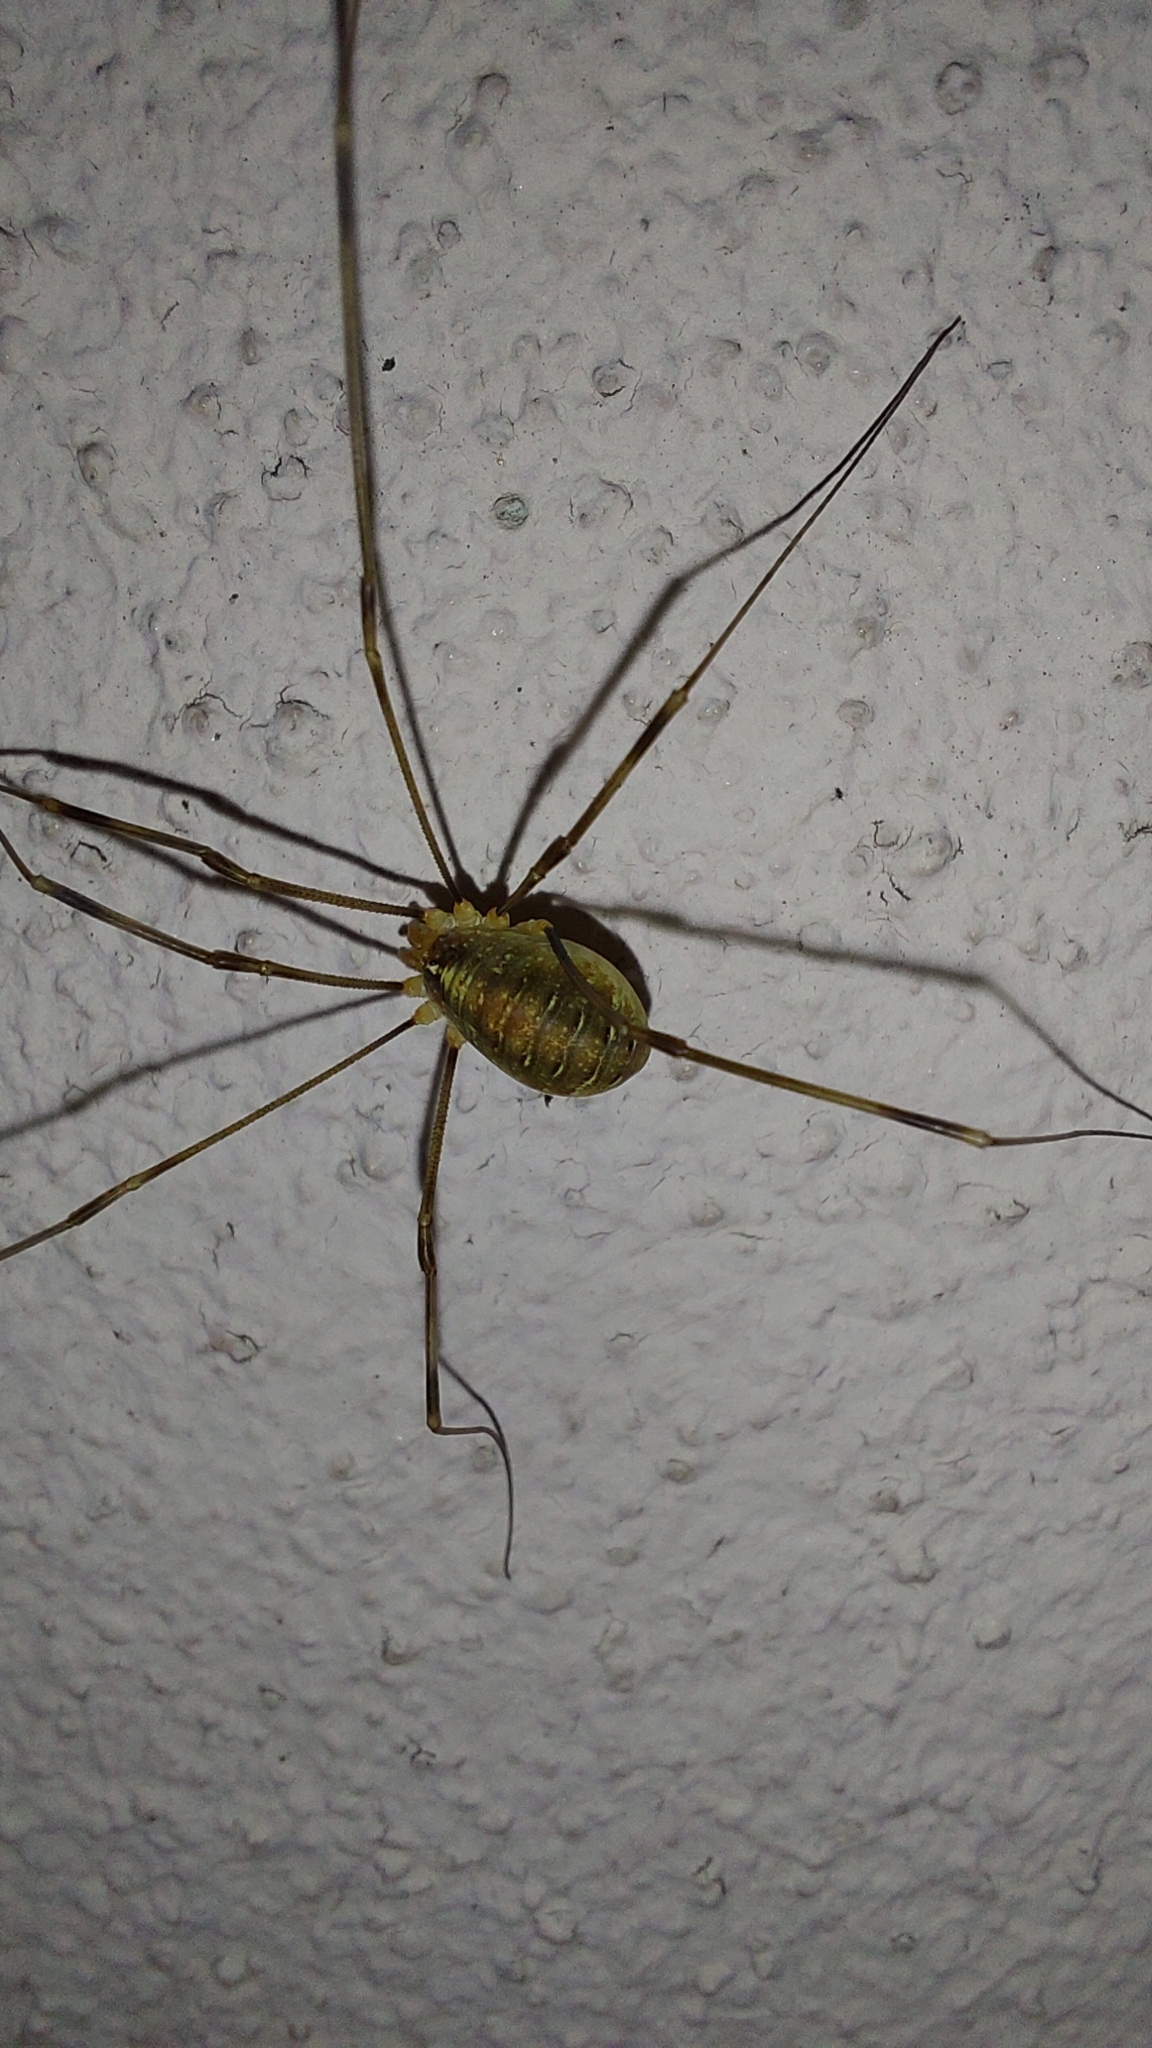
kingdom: Animalia
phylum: Arthropoda
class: Arachnida
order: Opiliones
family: Phalangiidae
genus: Opilio
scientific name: Opilio canestrinii
